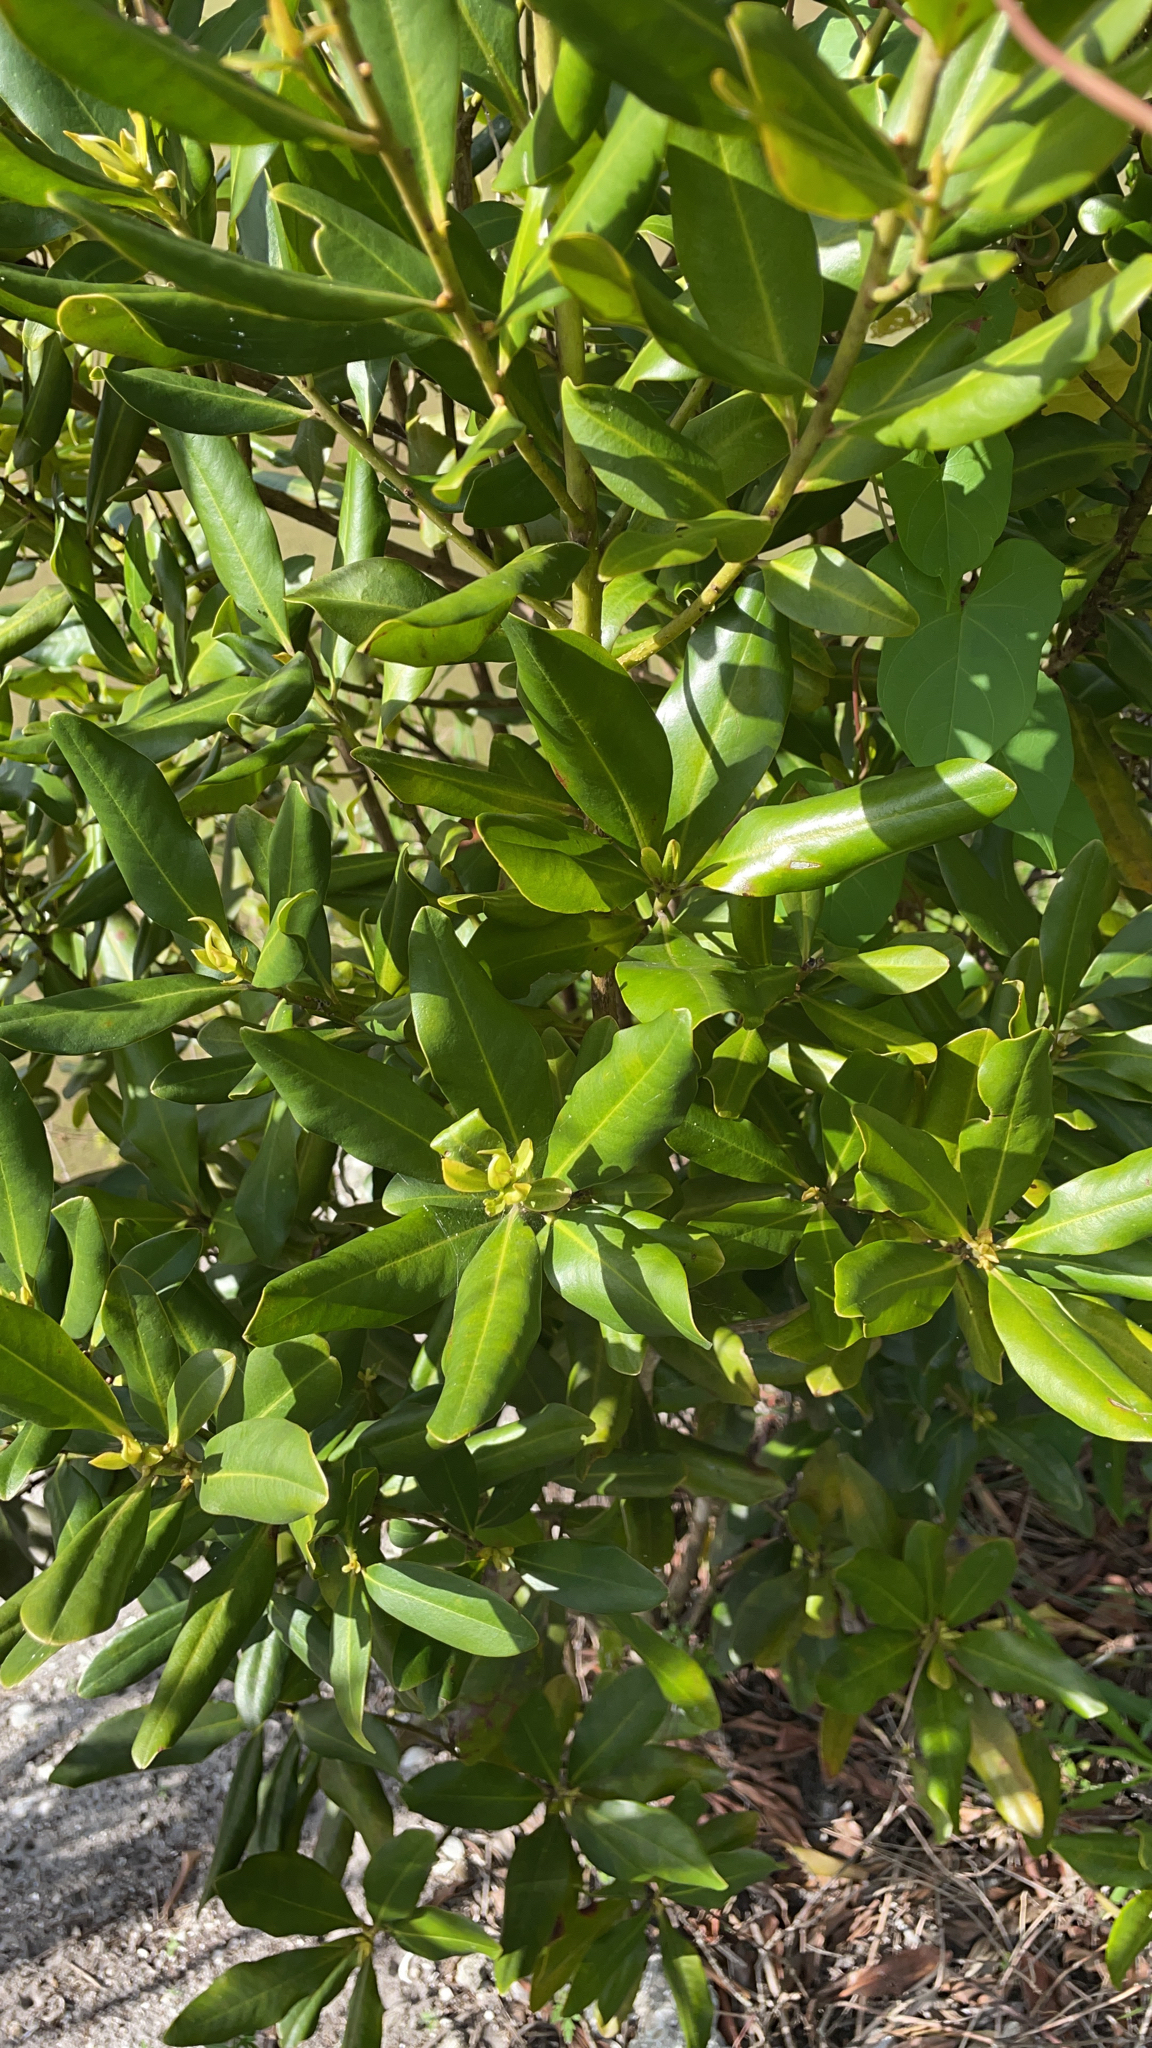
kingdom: Plantae
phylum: Tracheophyta
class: Magnoliopsida
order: Ericales
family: Primulaceae
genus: Myrsine
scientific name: Myrsine floridana
